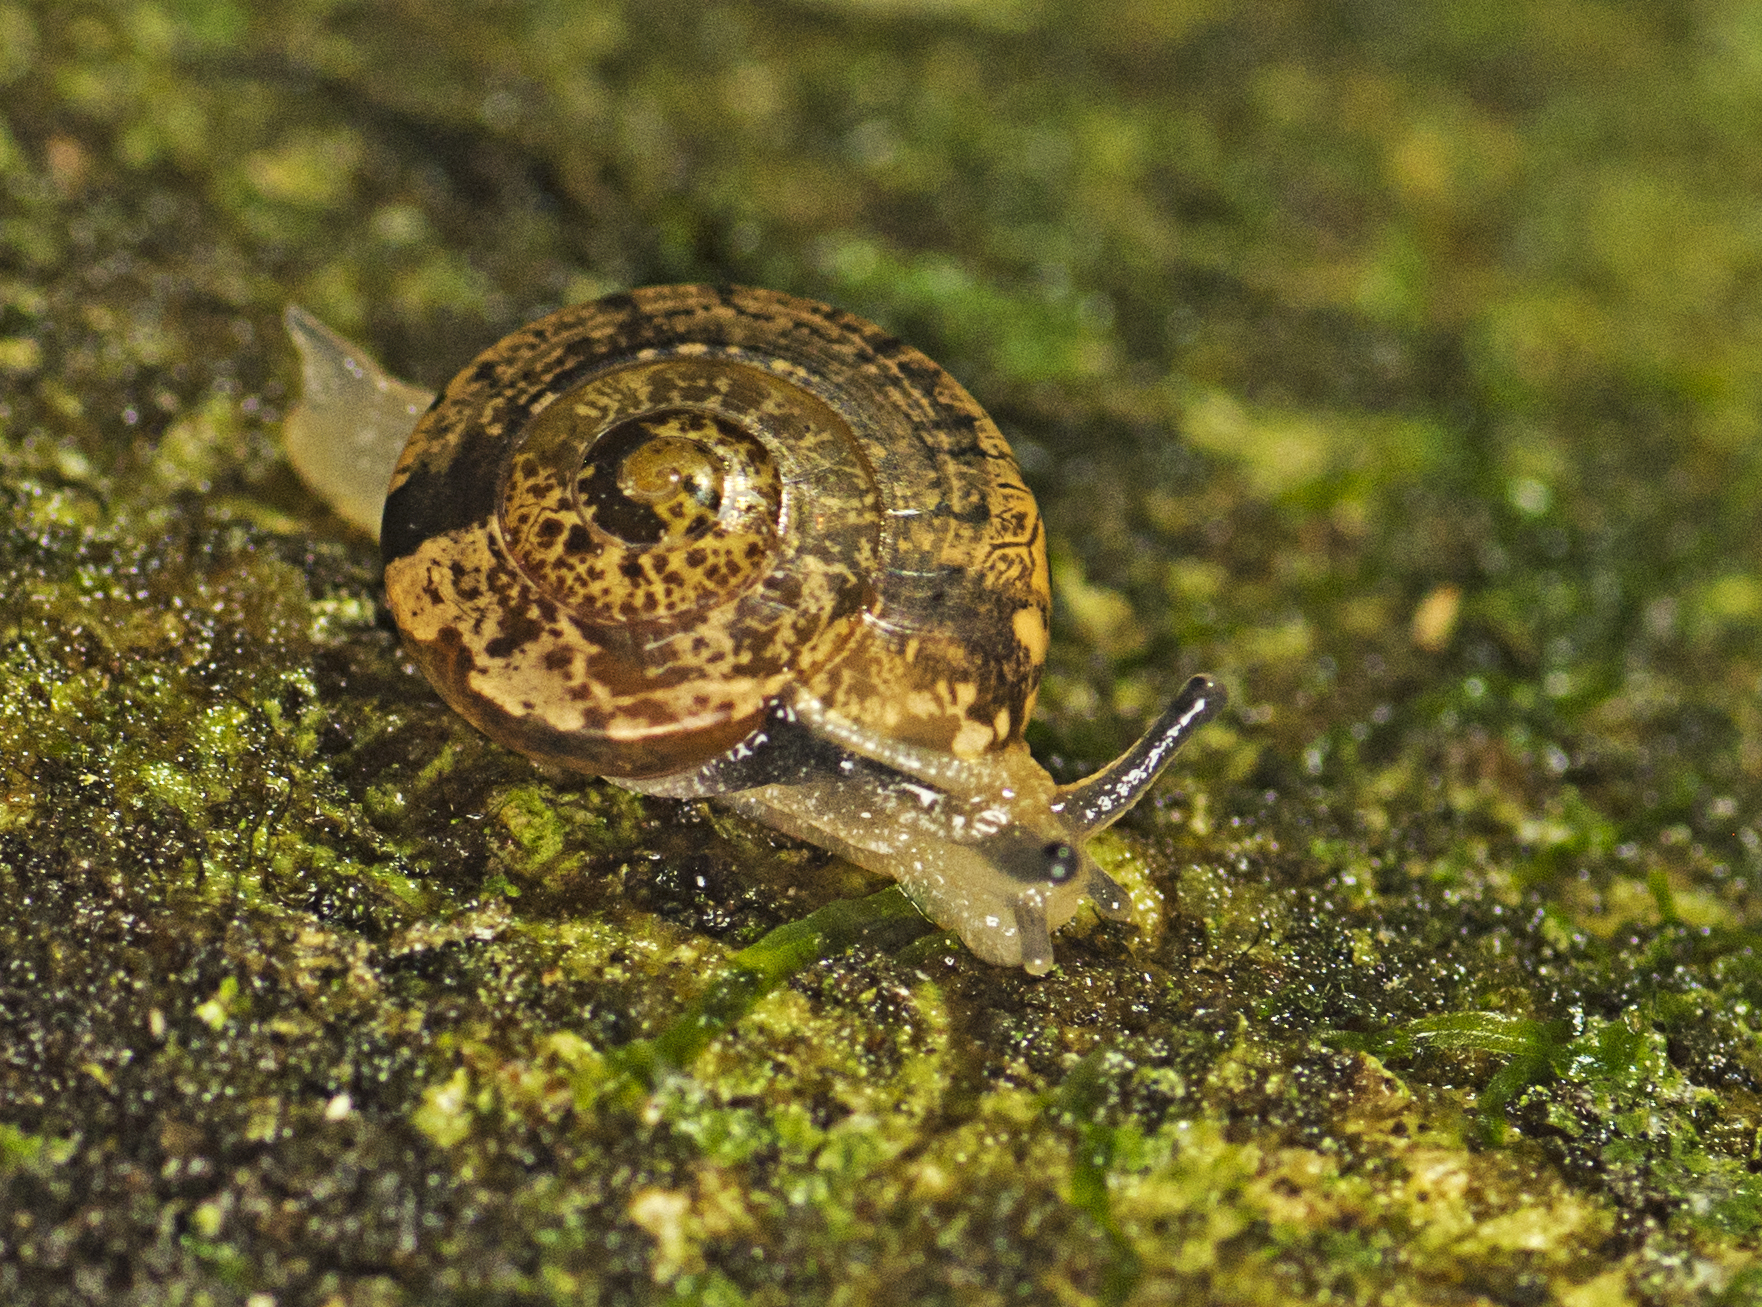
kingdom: Animalia
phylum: Mollusca
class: Gastropoda
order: Stylommatophora
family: Helicarionidae
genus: Nitor
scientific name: Nitor pudibundus
